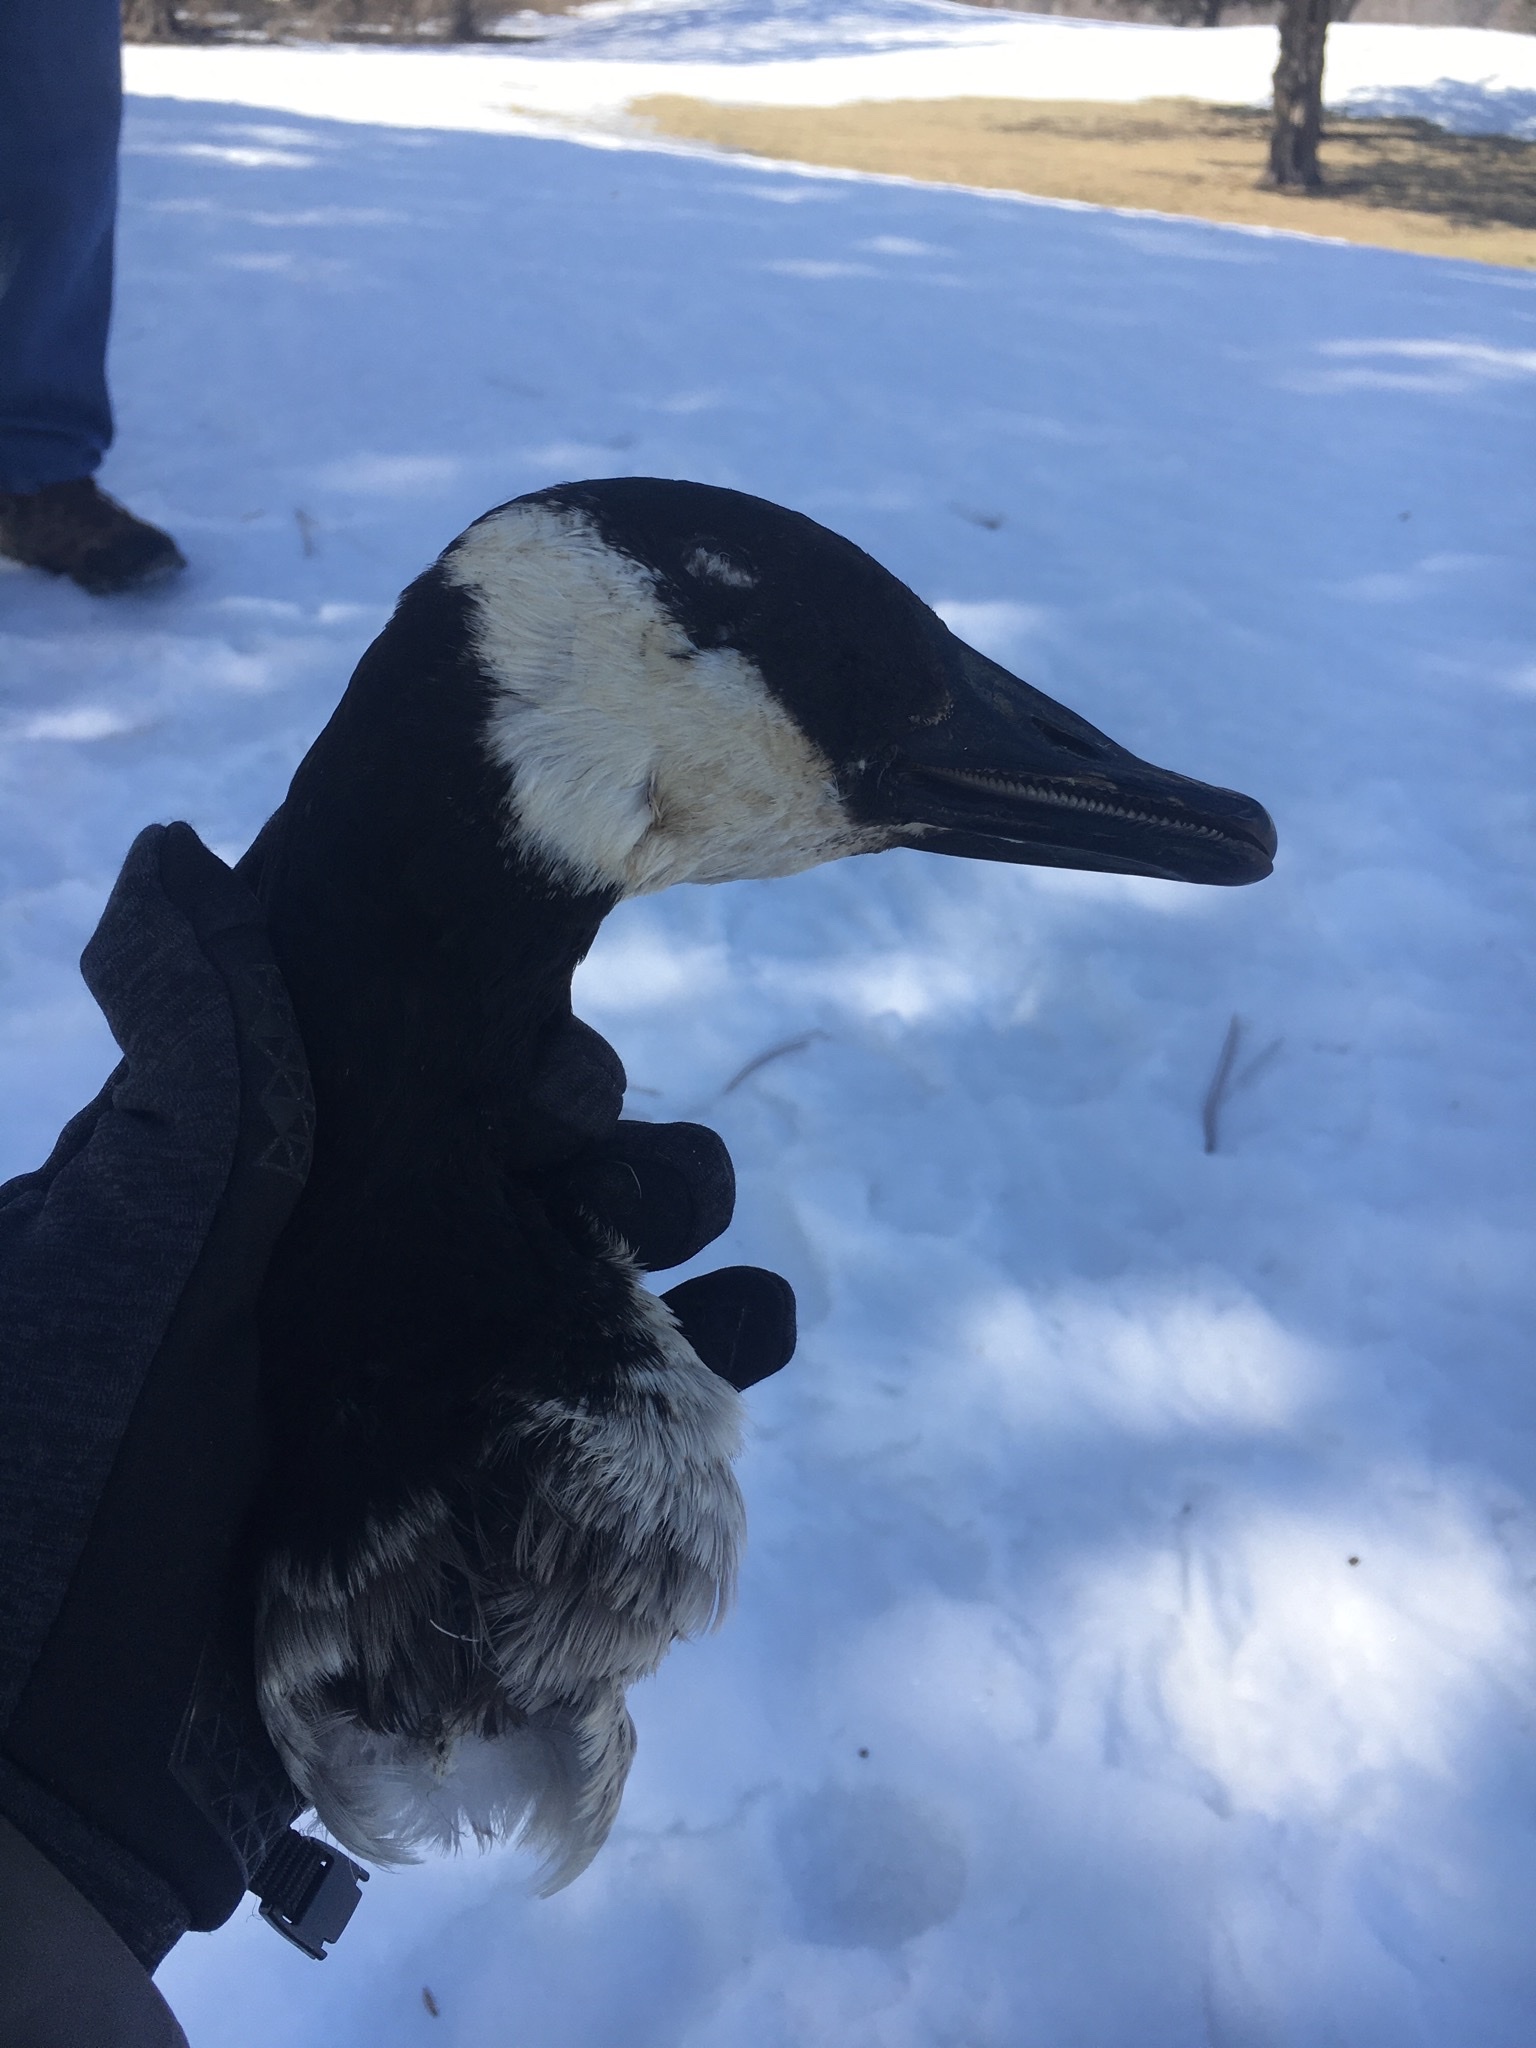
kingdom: Animalia
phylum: Chordata
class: Aves
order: Anseriformes
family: Anatidae
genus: Branta
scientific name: Branta canadensis
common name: Canada goose
